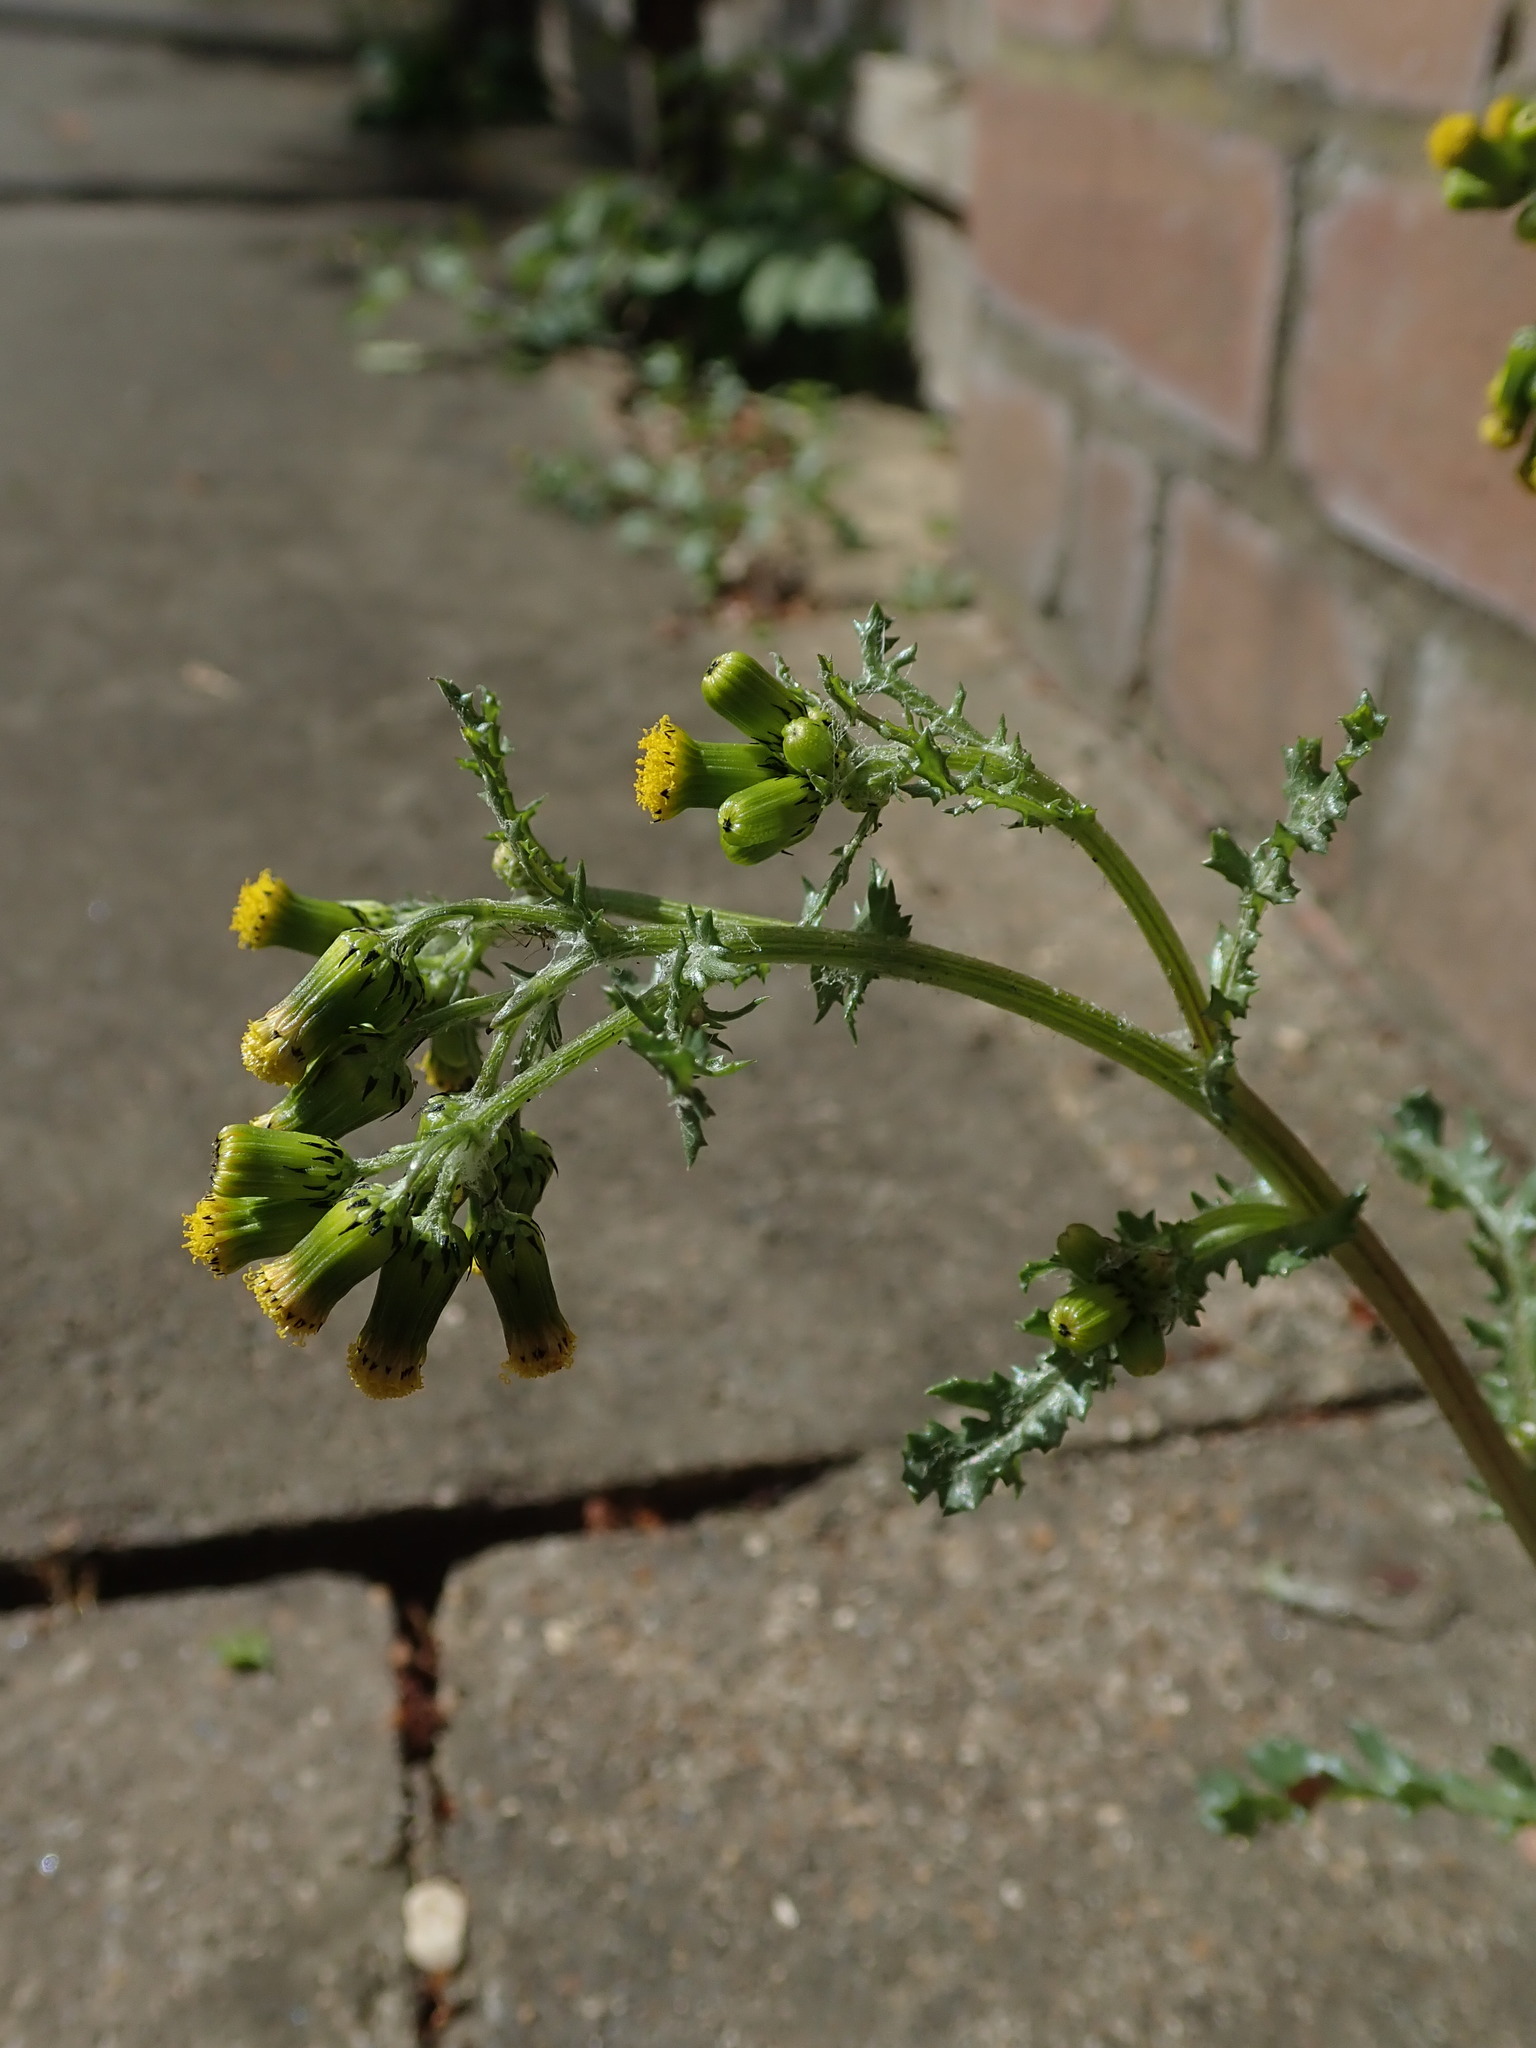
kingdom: Plantae
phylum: Tracheophyta
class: Magnoliopsida
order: Asterales
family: Asteraceae
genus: Senecio
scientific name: Senecio vulgaris
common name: Old-man-in-the-spring
